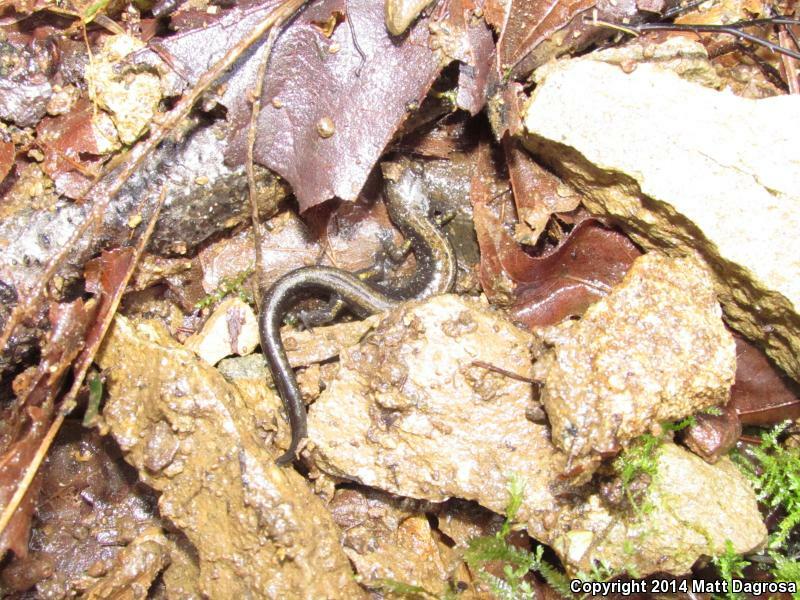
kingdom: Animalia
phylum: Chordata
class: Amphibia
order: Caudata
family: Plethodontidae
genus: Plethodon
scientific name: Plethodon dunni
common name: Dunn's salamander
